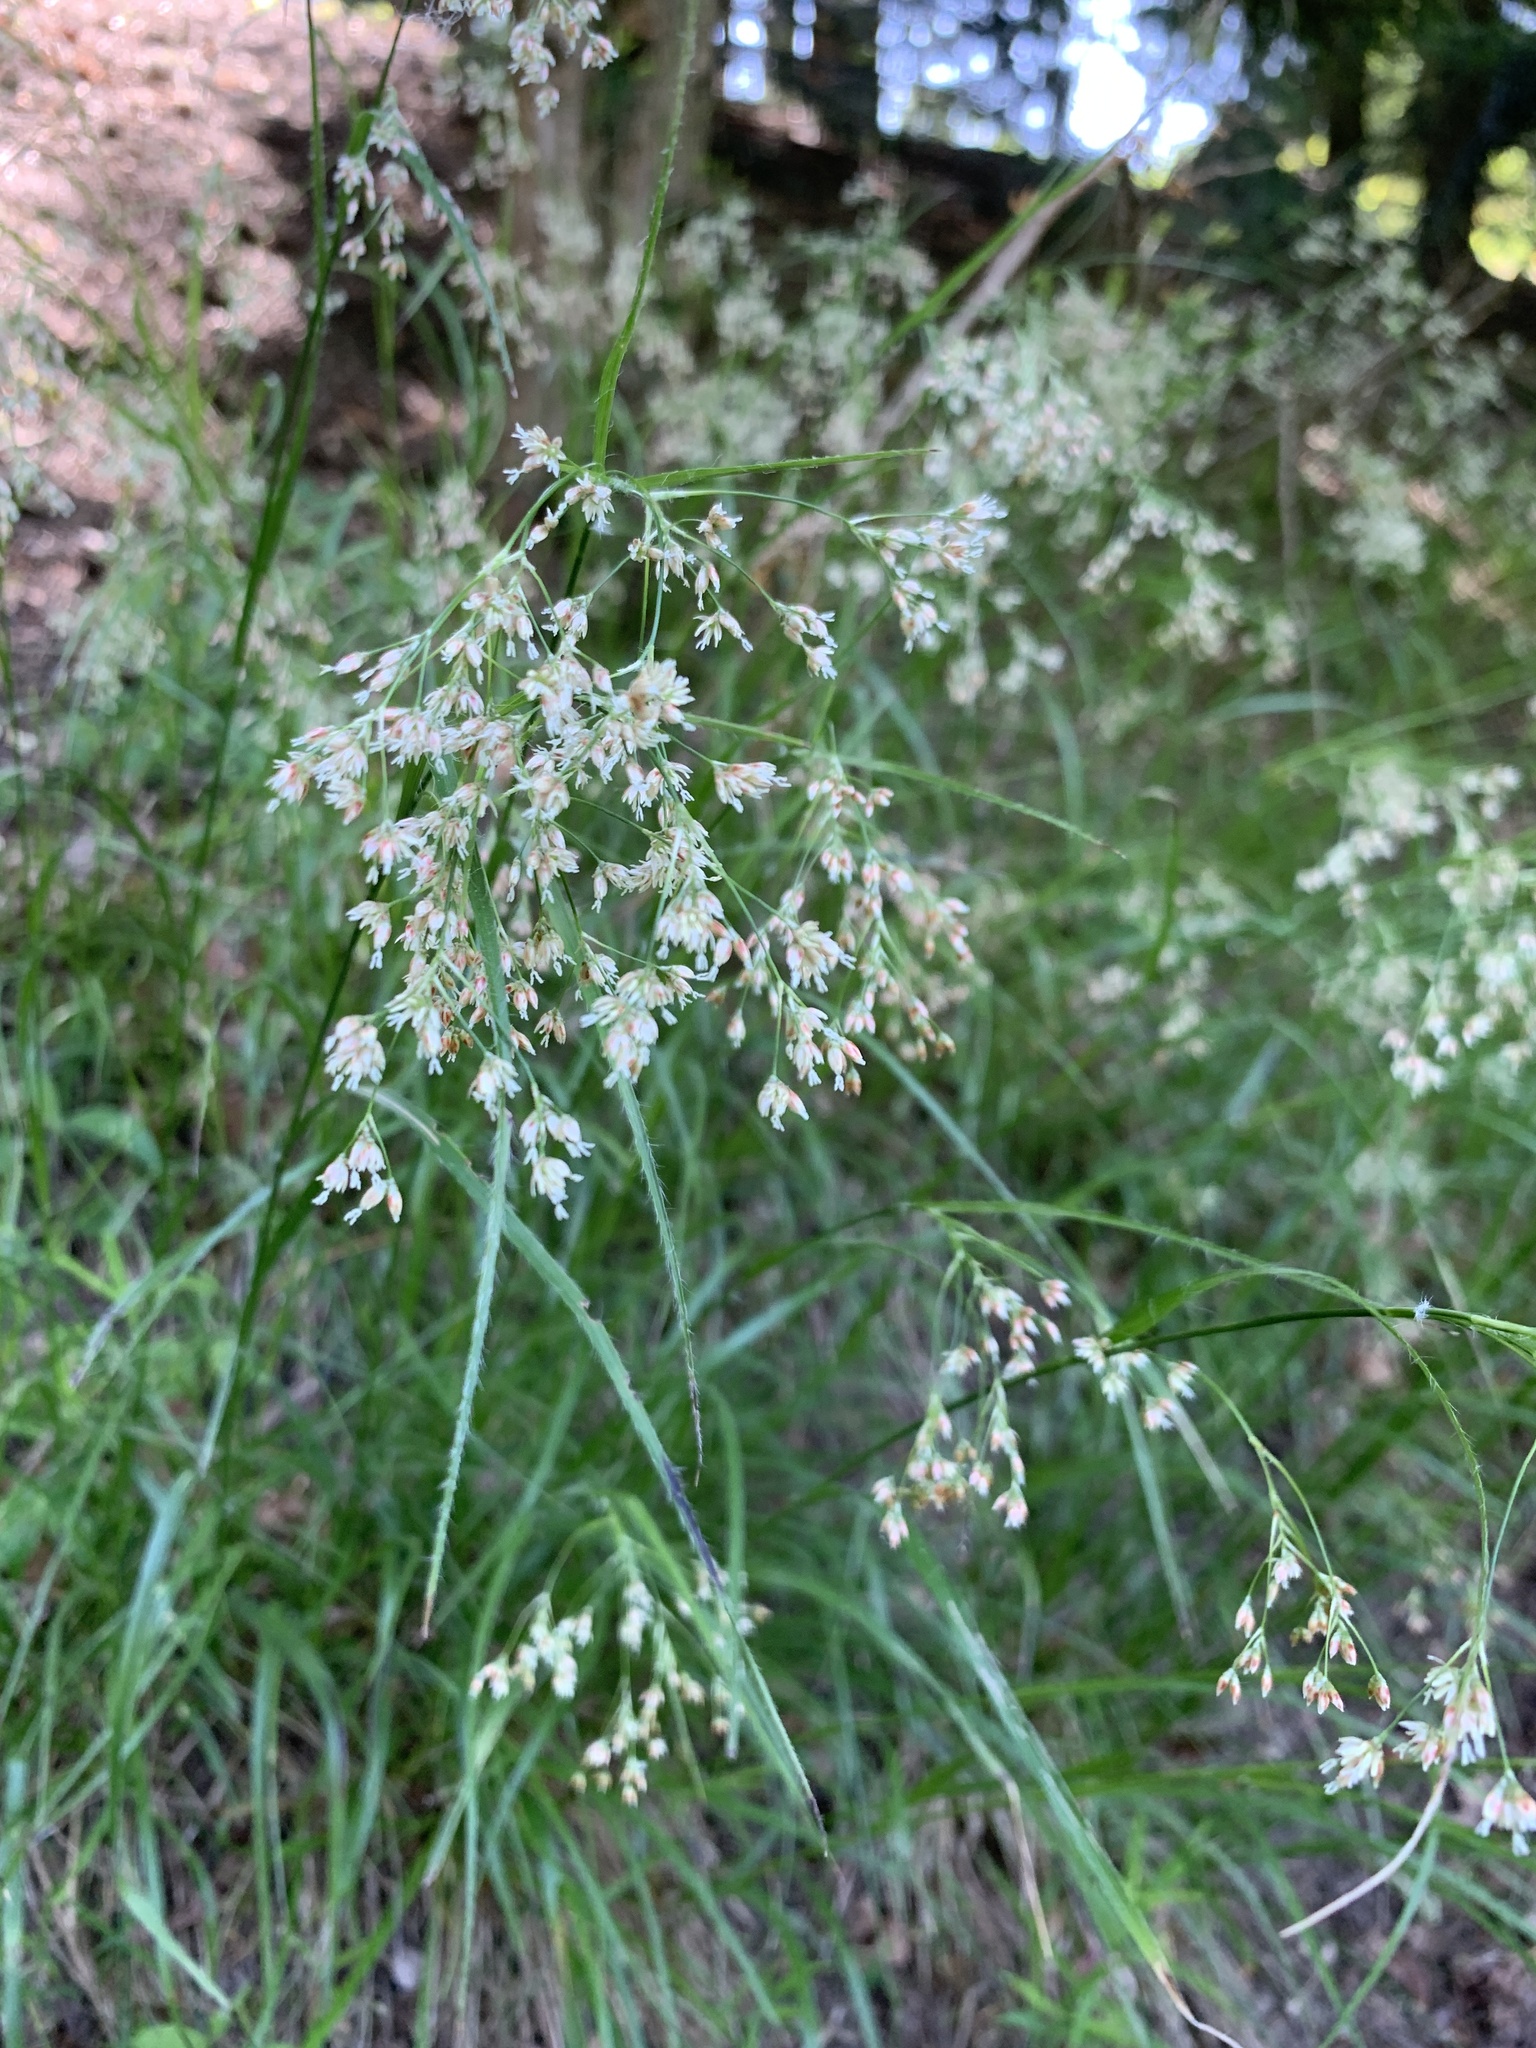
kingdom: Plantae
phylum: Tracheophyta
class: Liliopsida
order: Poales
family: Juncaceae
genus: Luzula
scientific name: Luzula luzuloides
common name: White wood-rush
